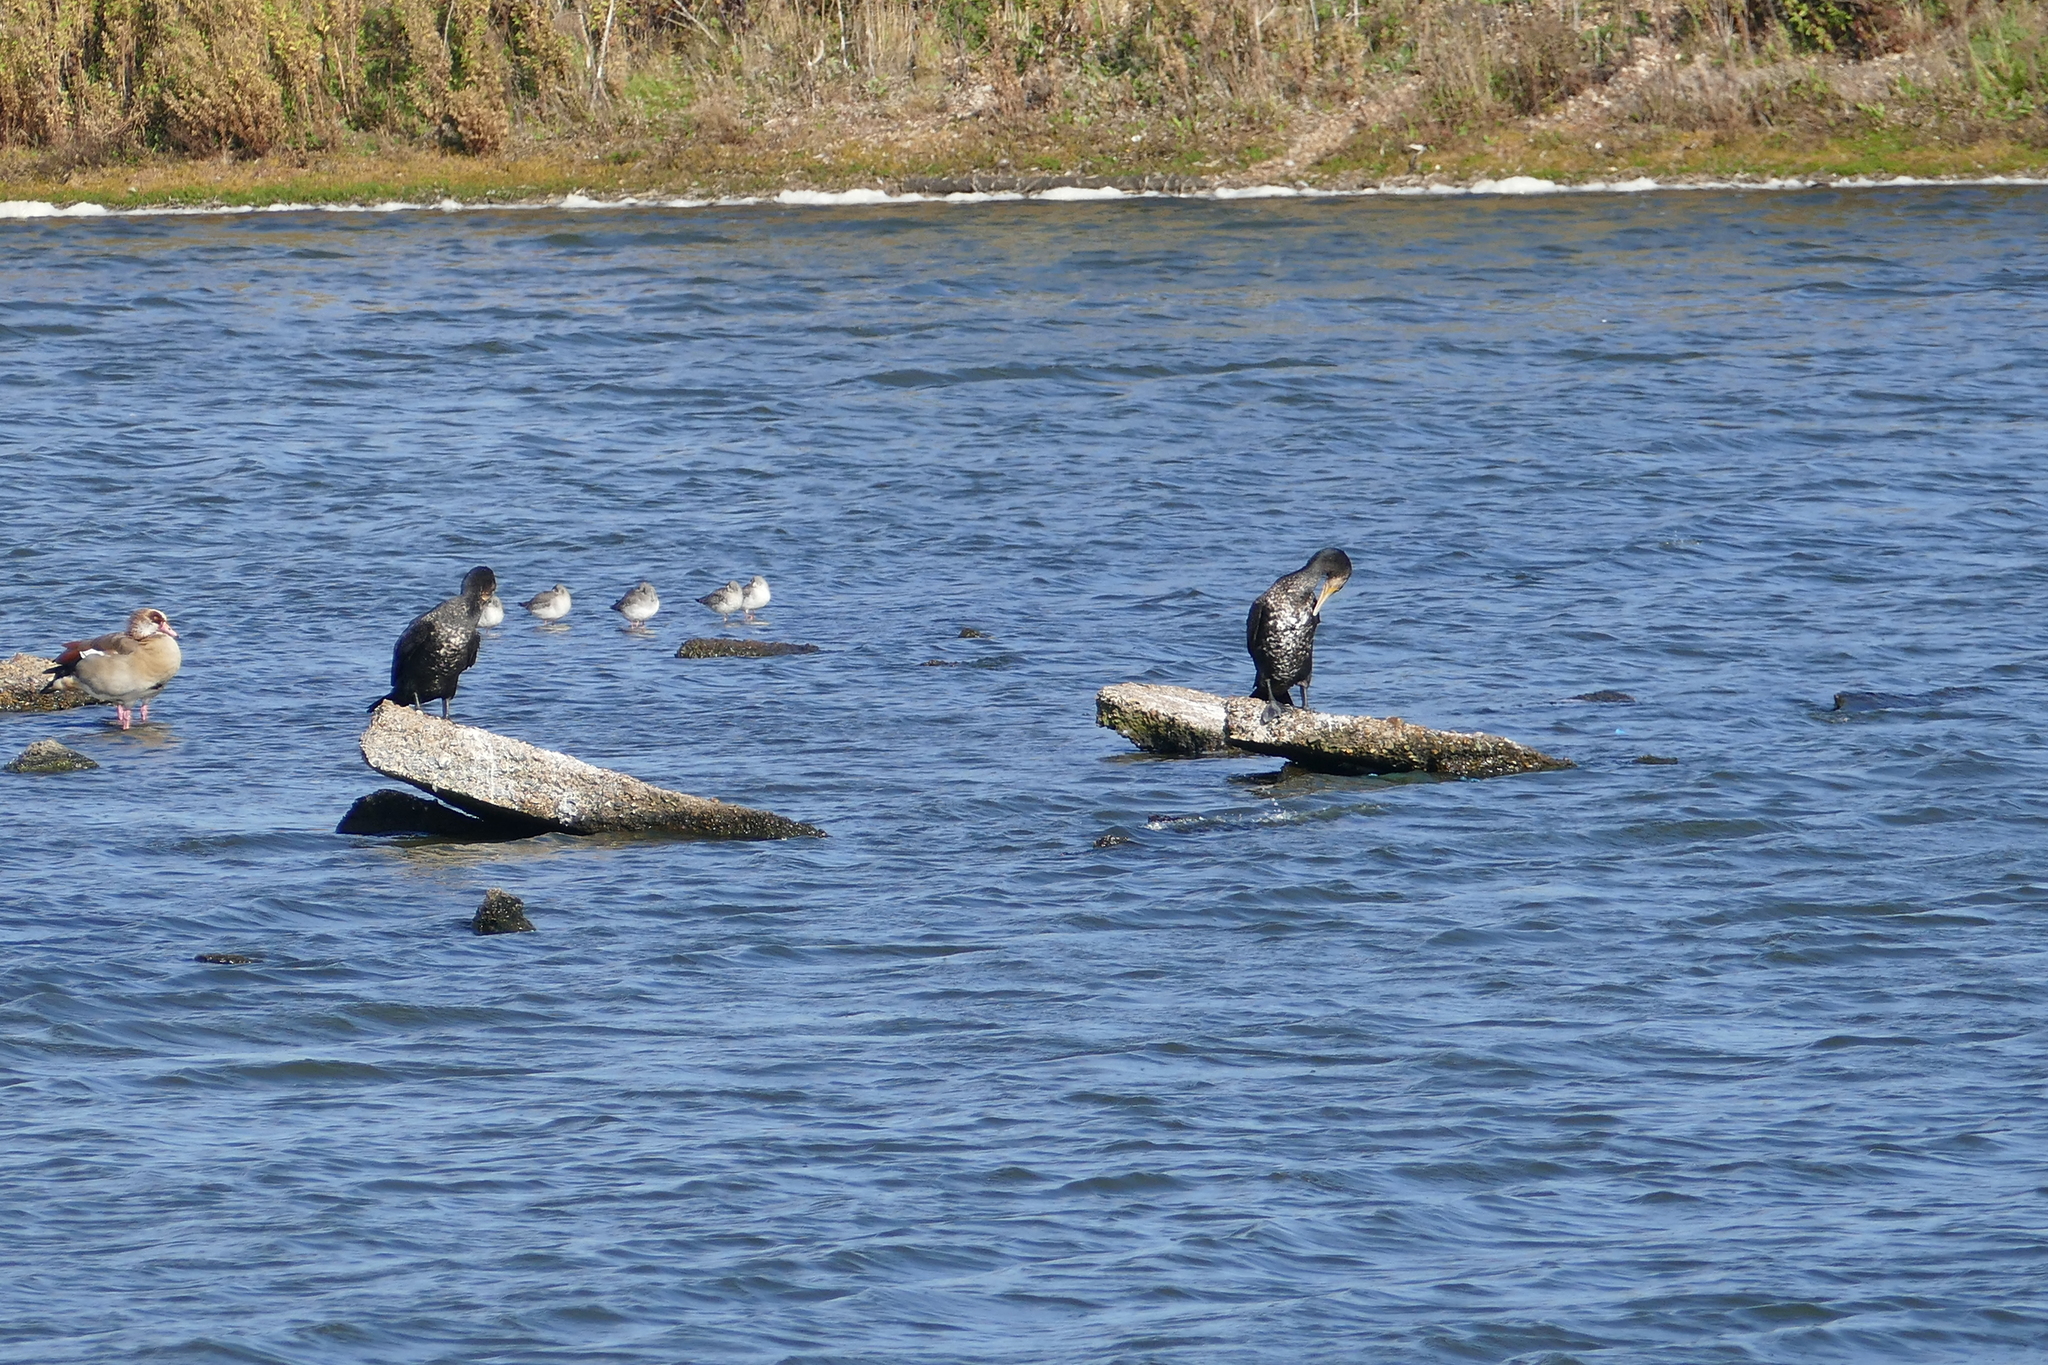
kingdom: Animalia
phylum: Chordata
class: Aves
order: Suliformes
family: Phalacrocoracidae
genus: Phalacrocorax
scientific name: Phalacrocorax carbo
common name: Great cormorant
